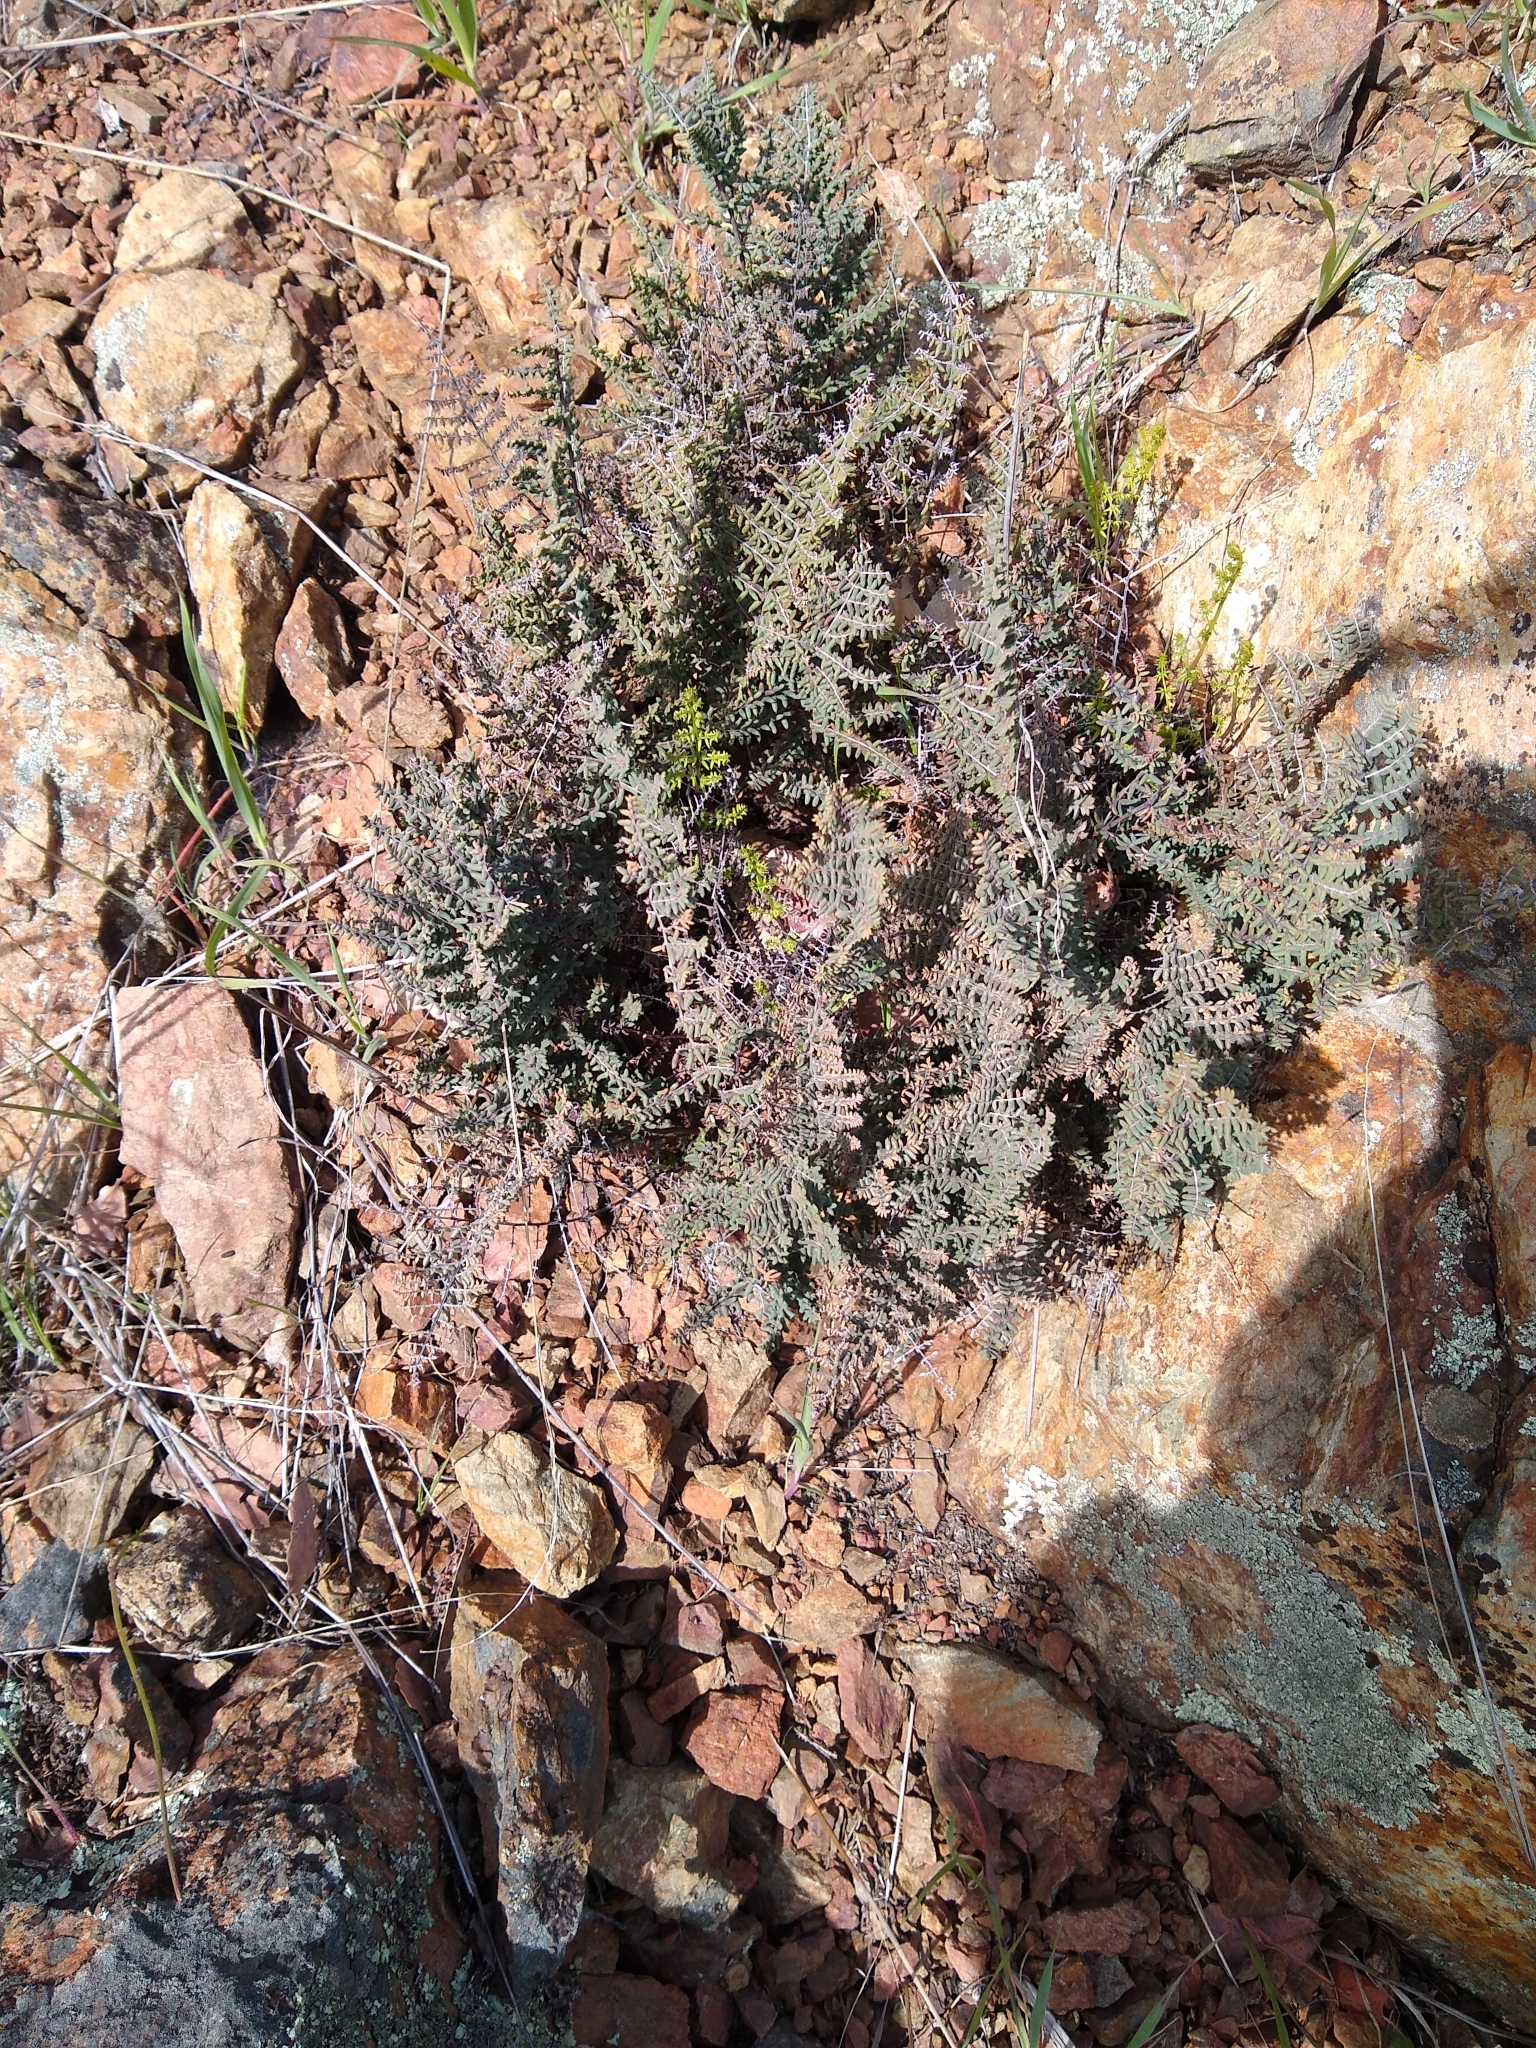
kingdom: Plantae
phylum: Tracheophyta
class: Polypodiopsida
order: Polypodiales
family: Pteridaceae
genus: Pellaea
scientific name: Pellaea mucronata
